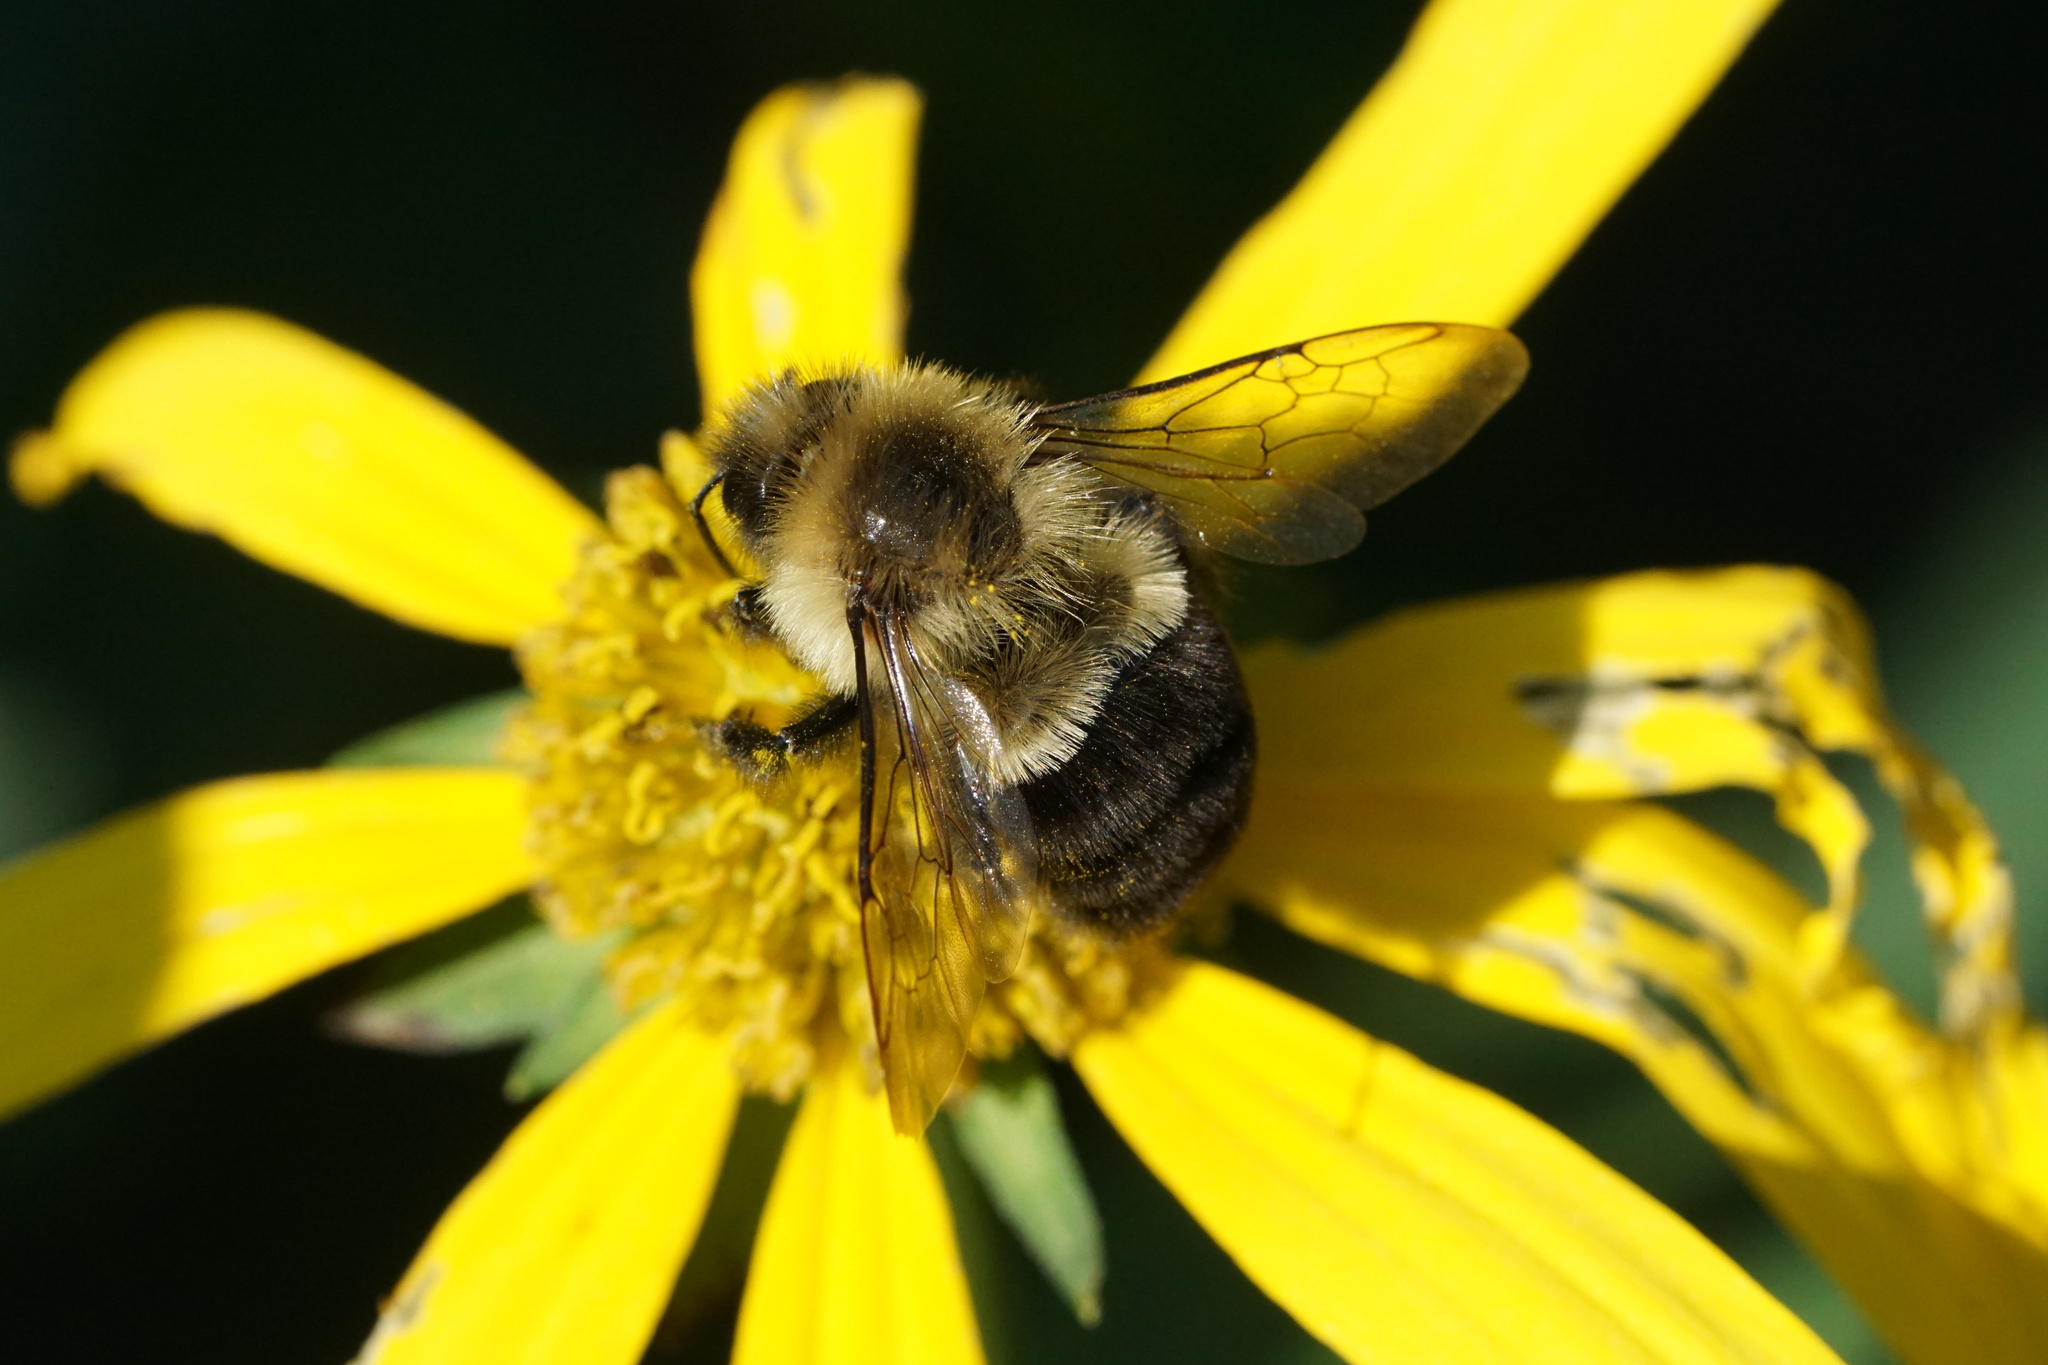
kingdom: Animalia
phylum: Arthropoda
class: Insecta
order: Hymenoptera
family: Apidae
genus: Bombus
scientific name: Bombus impatiens
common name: Common eastern bumble bee
